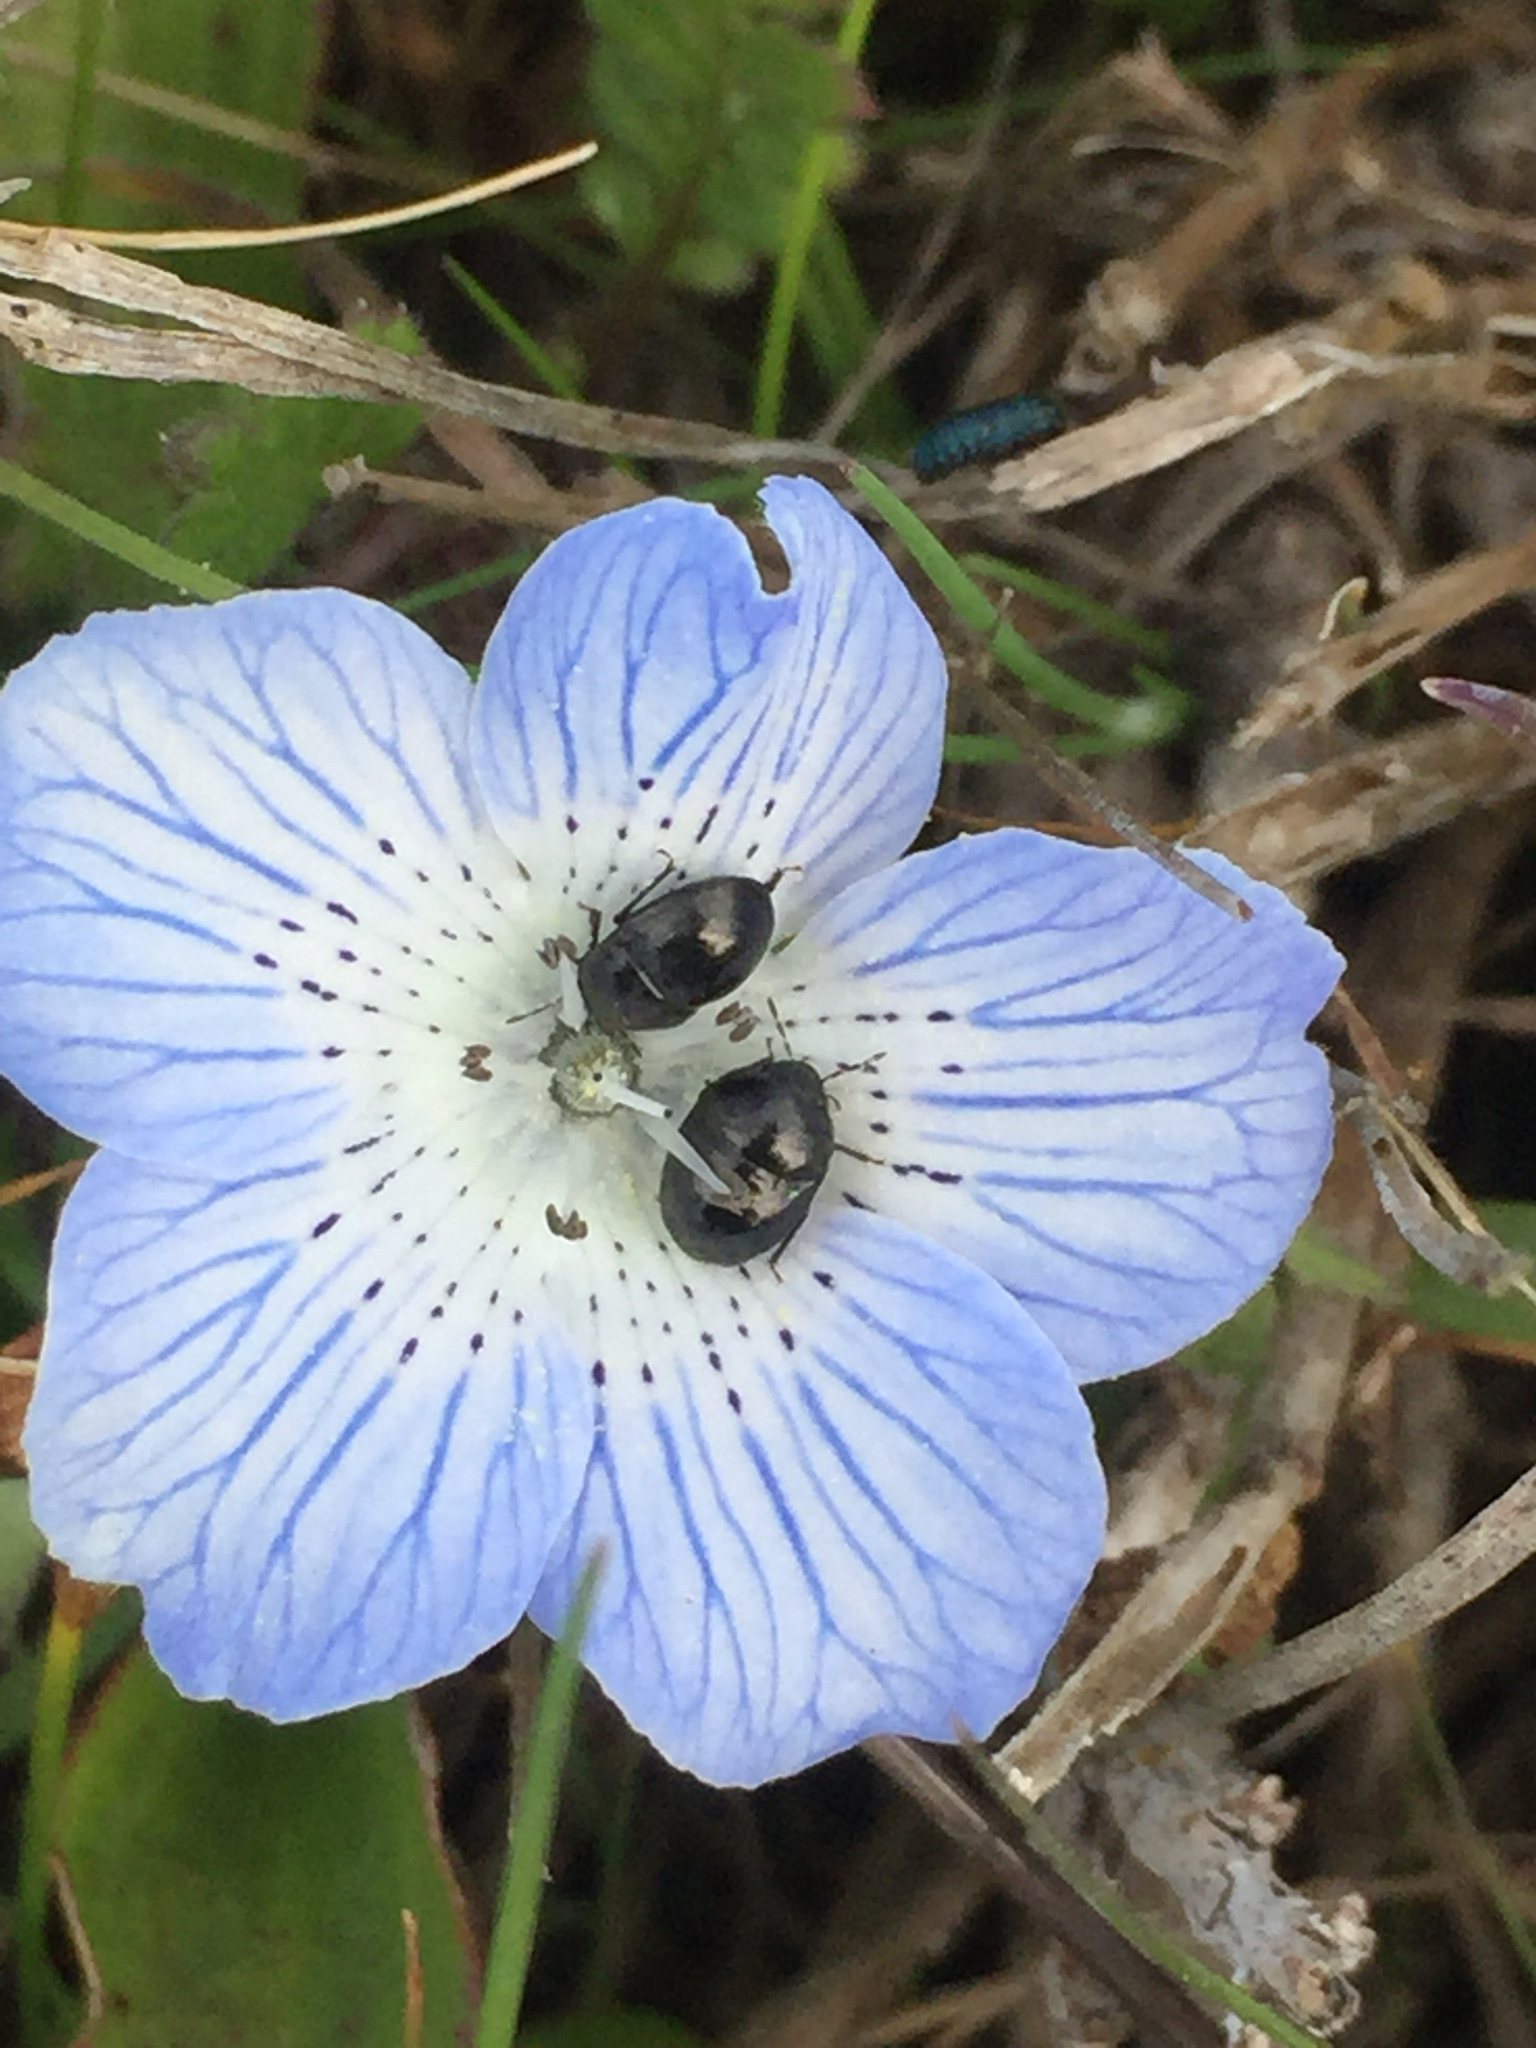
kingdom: Plantae
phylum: Tracheophyta
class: Magnoliopsida
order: Boraginales
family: Hydrophyllaceae
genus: Nemophila
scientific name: Nemophila menziesii
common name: Baby's-blue-eyes
